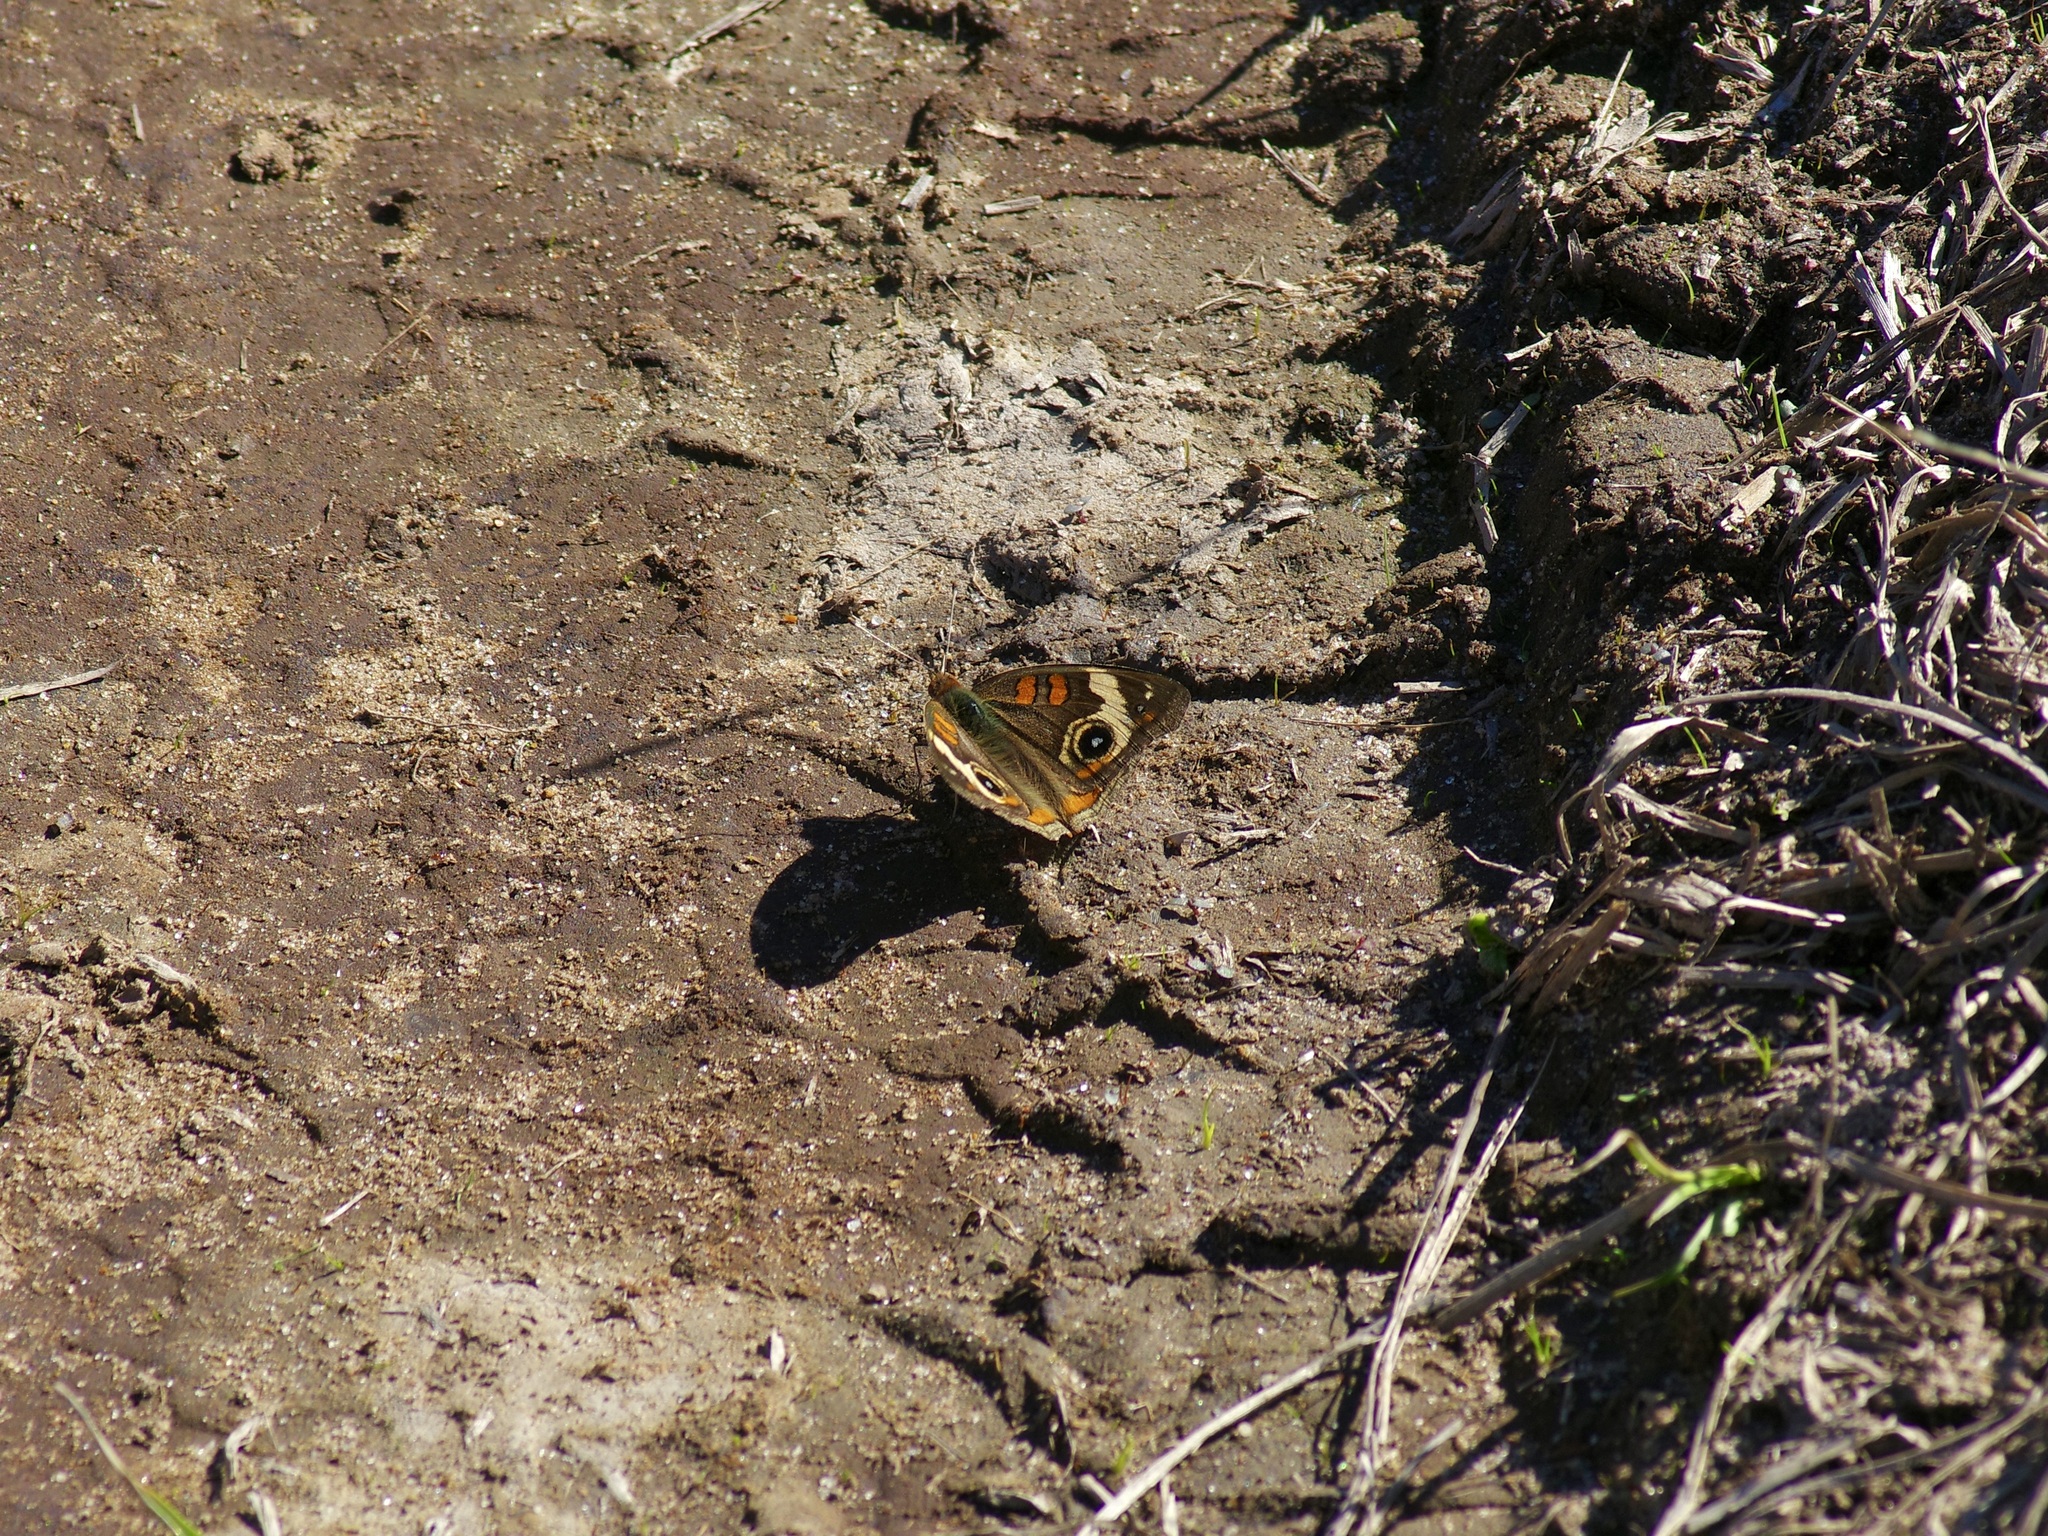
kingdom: Animalia
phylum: Arthropoda
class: Insecta
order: Lepidoptera
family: Nymphalidae
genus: Junonia
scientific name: Junonia coenia
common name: Common buckeye
